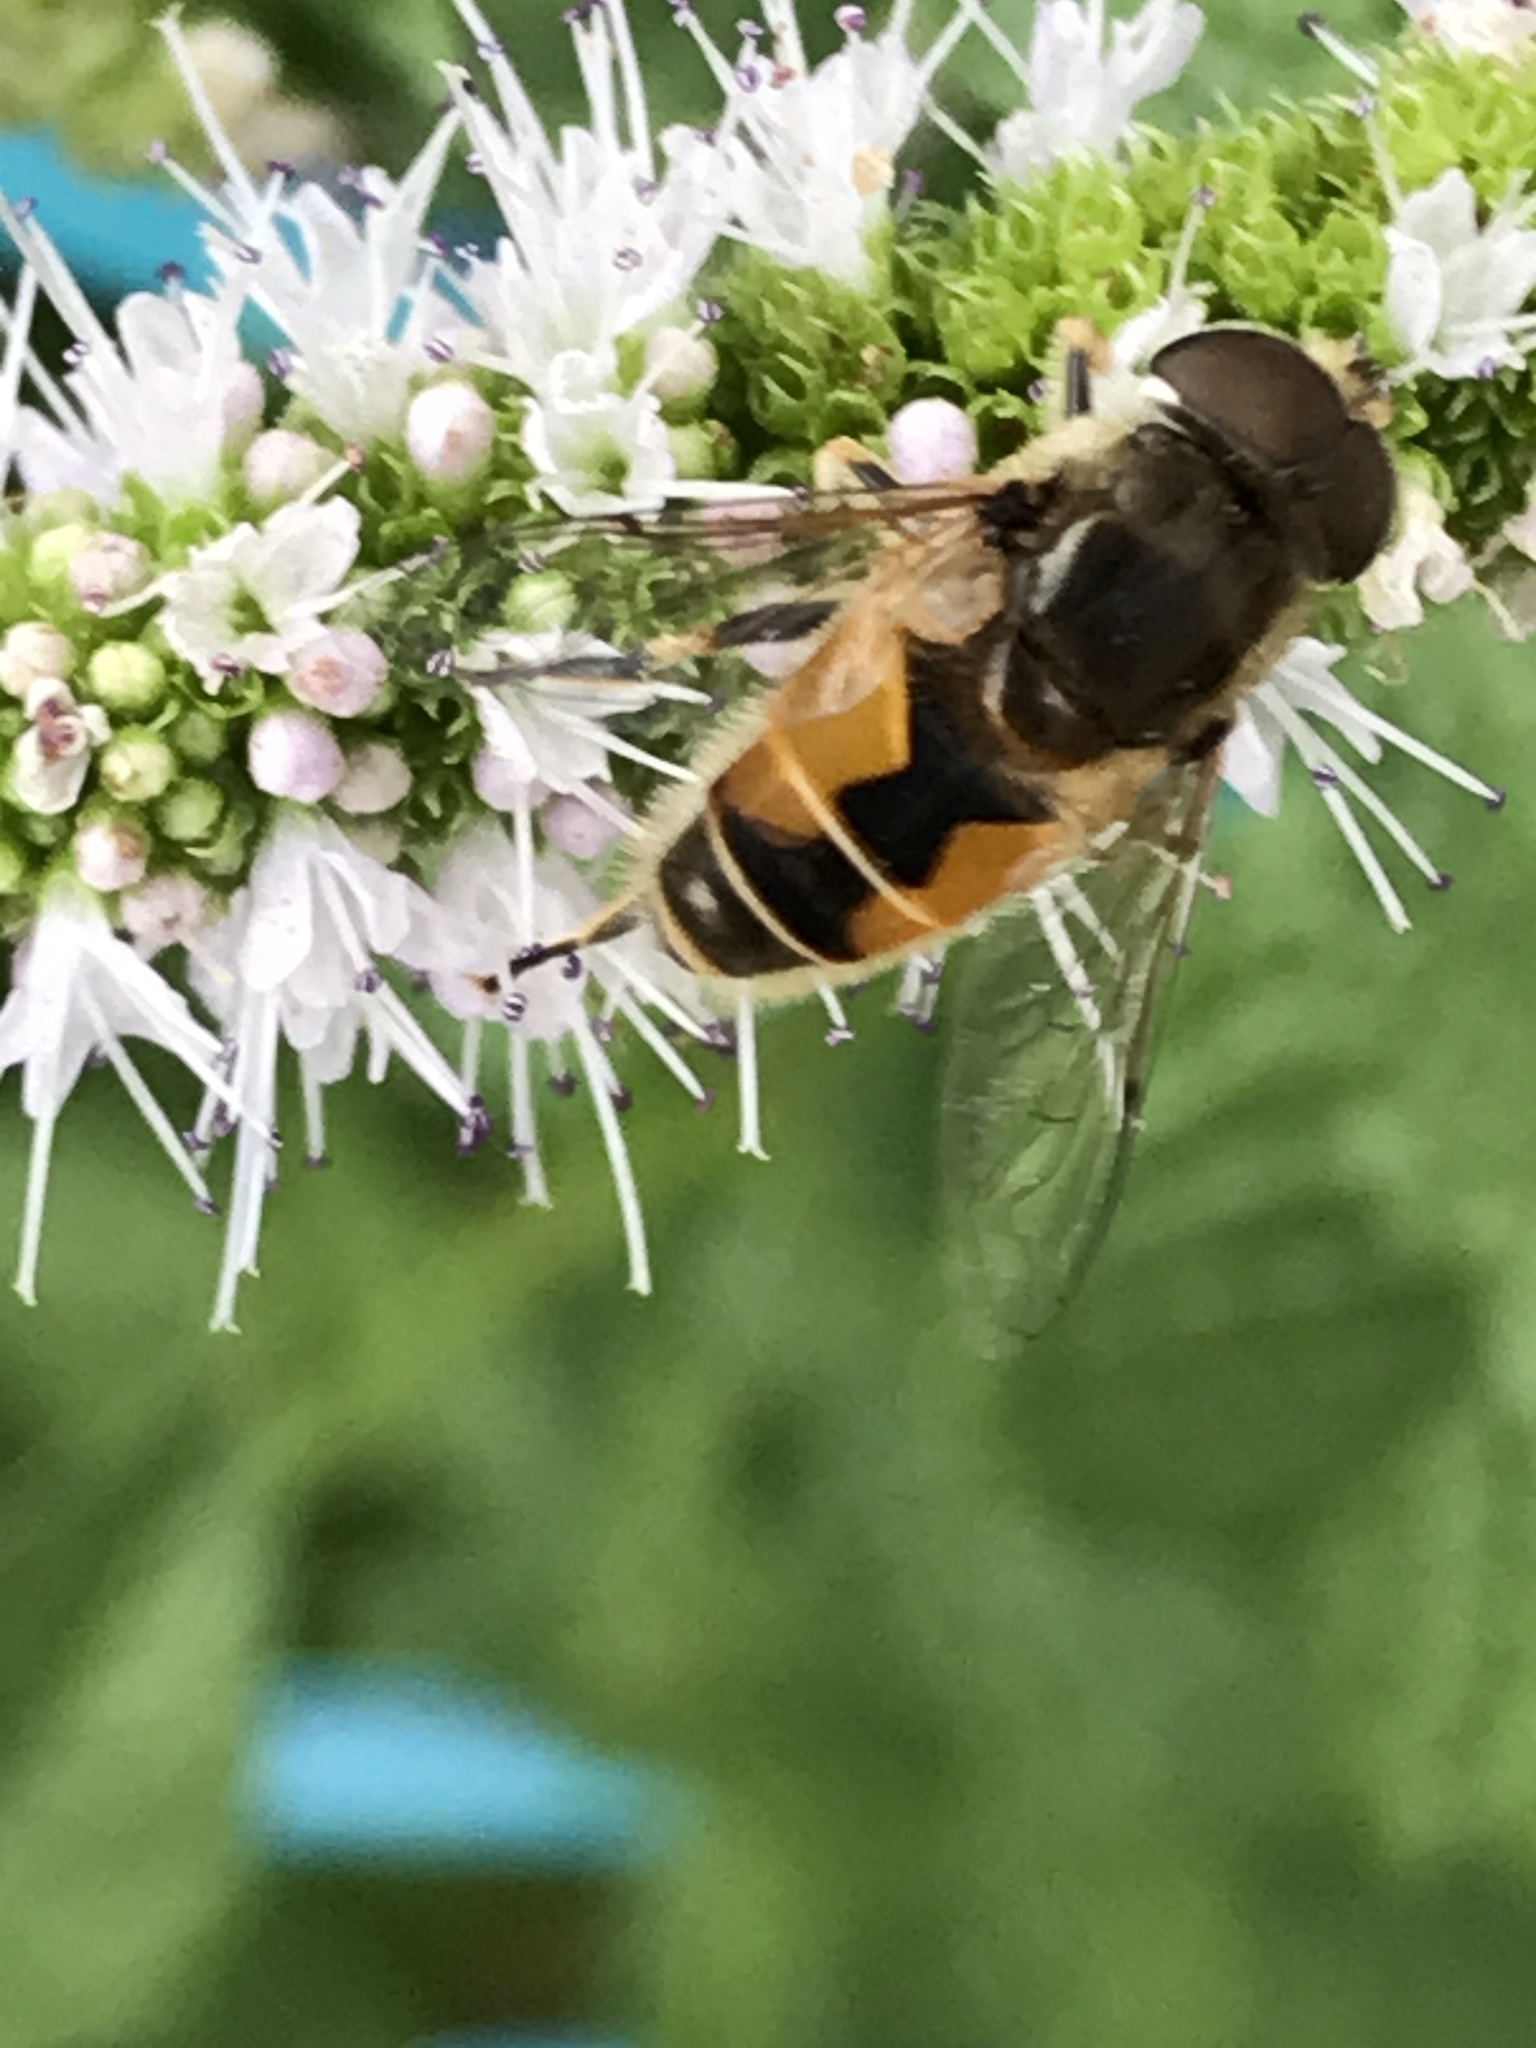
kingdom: Animalia
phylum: Arthropoda
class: Insecta
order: Diptera
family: Syrphidae
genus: Eristalis
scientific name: Eristalis arbustorum
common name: Hover fly
